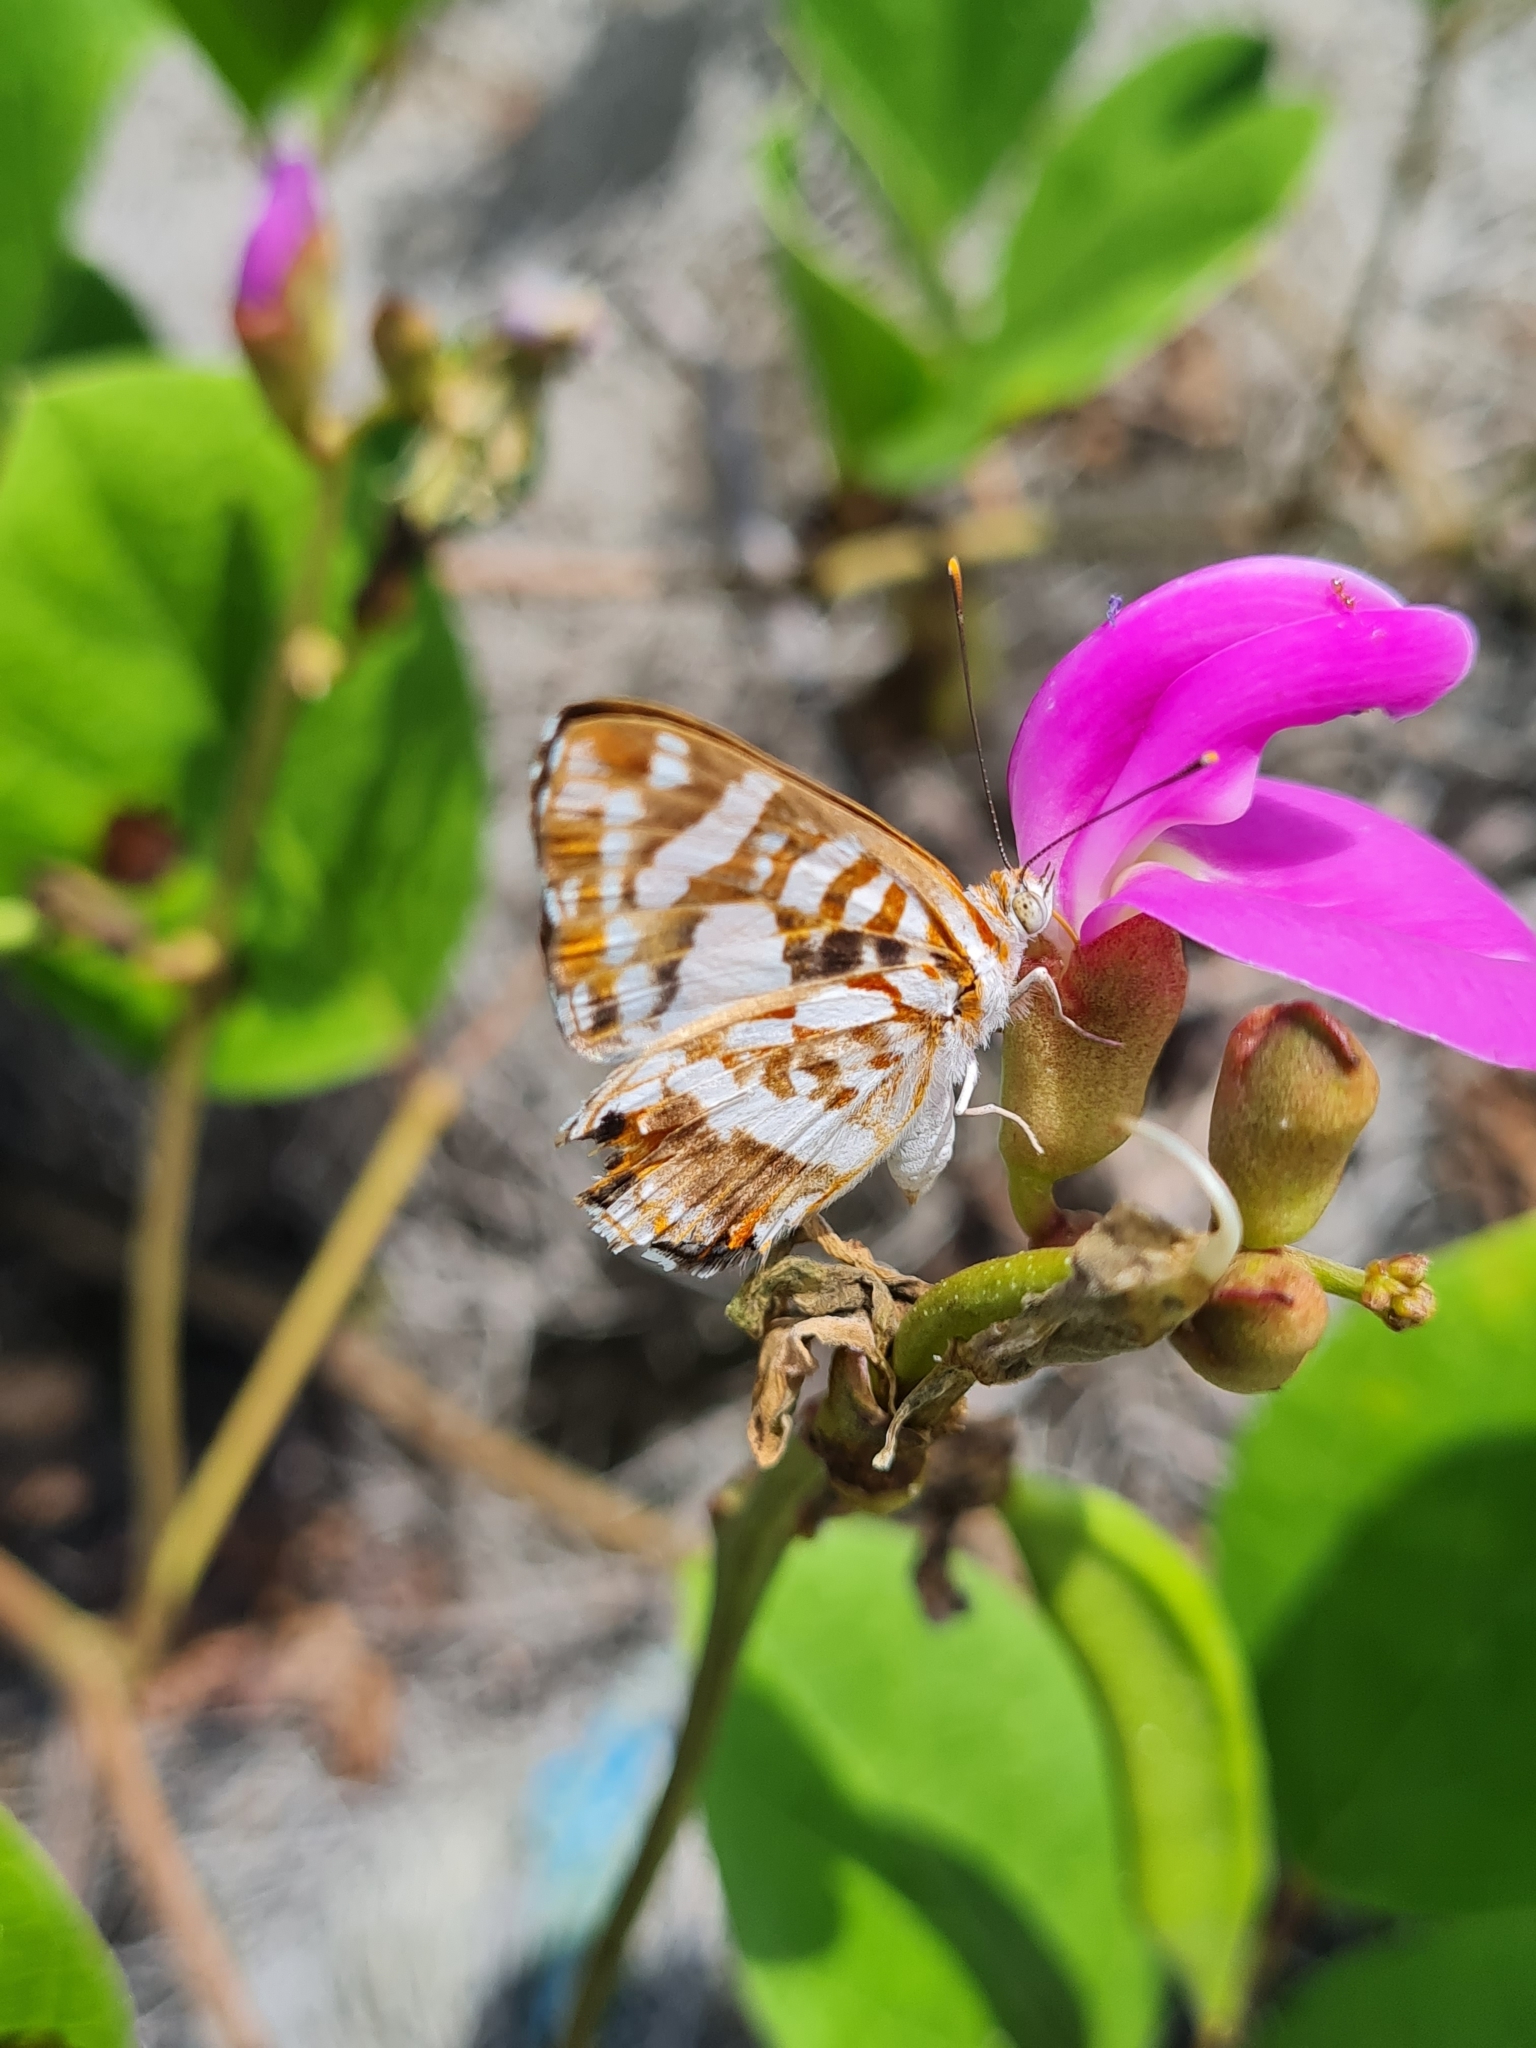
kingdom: Animalia
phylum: Arthropoda
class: Insecta
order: Lepidoptera
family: Riodinidae
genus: Ariconias
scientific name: Ariconias
